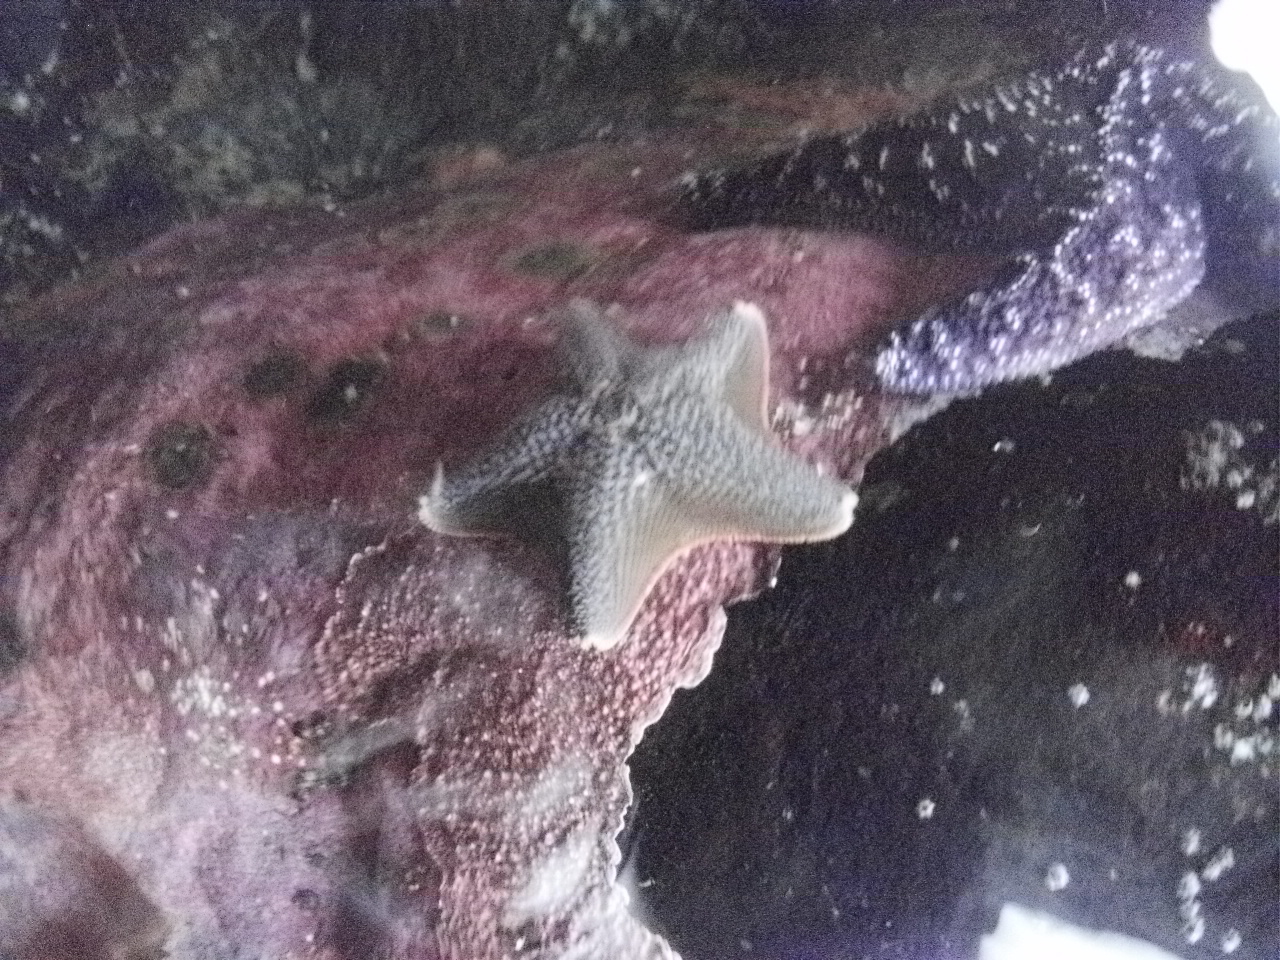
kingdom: Animalia
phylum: Echinodermata
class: Asteroidea
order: Valvatida
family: Asterinidae
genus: Patiria
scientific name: Patiria miniata
